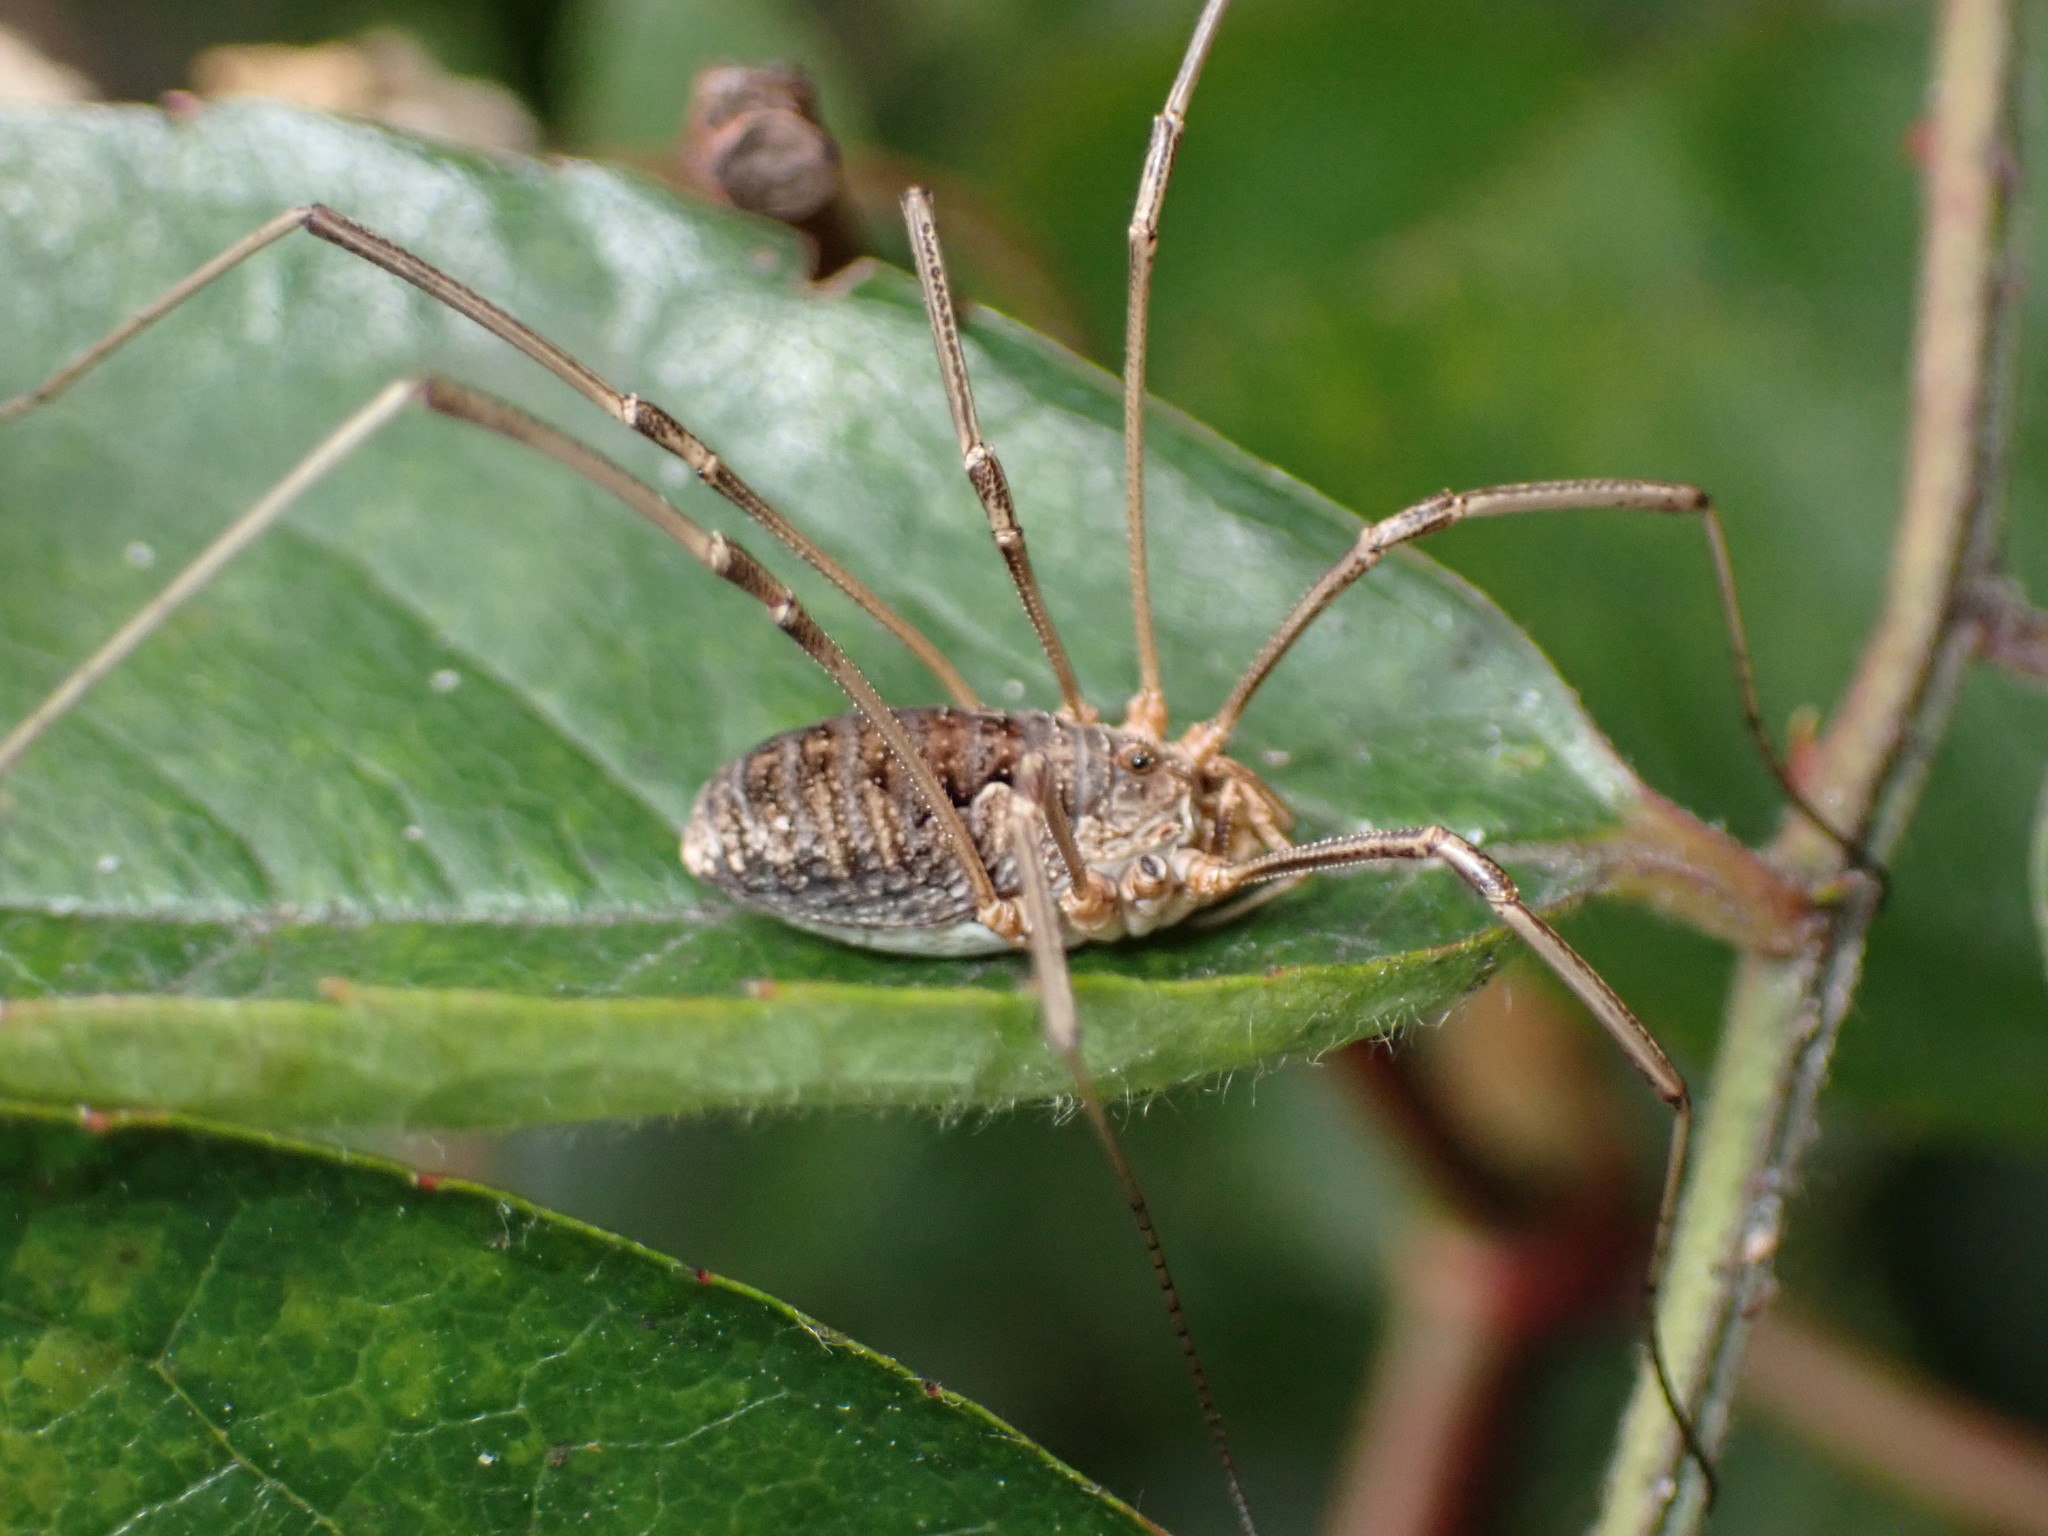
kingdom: Animalia
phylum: Arthropoda
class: Arachnida
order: Opiliones
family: Phalangiidae
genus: Phalangium
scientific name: Phalangium opilio
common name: Daddy longleg
